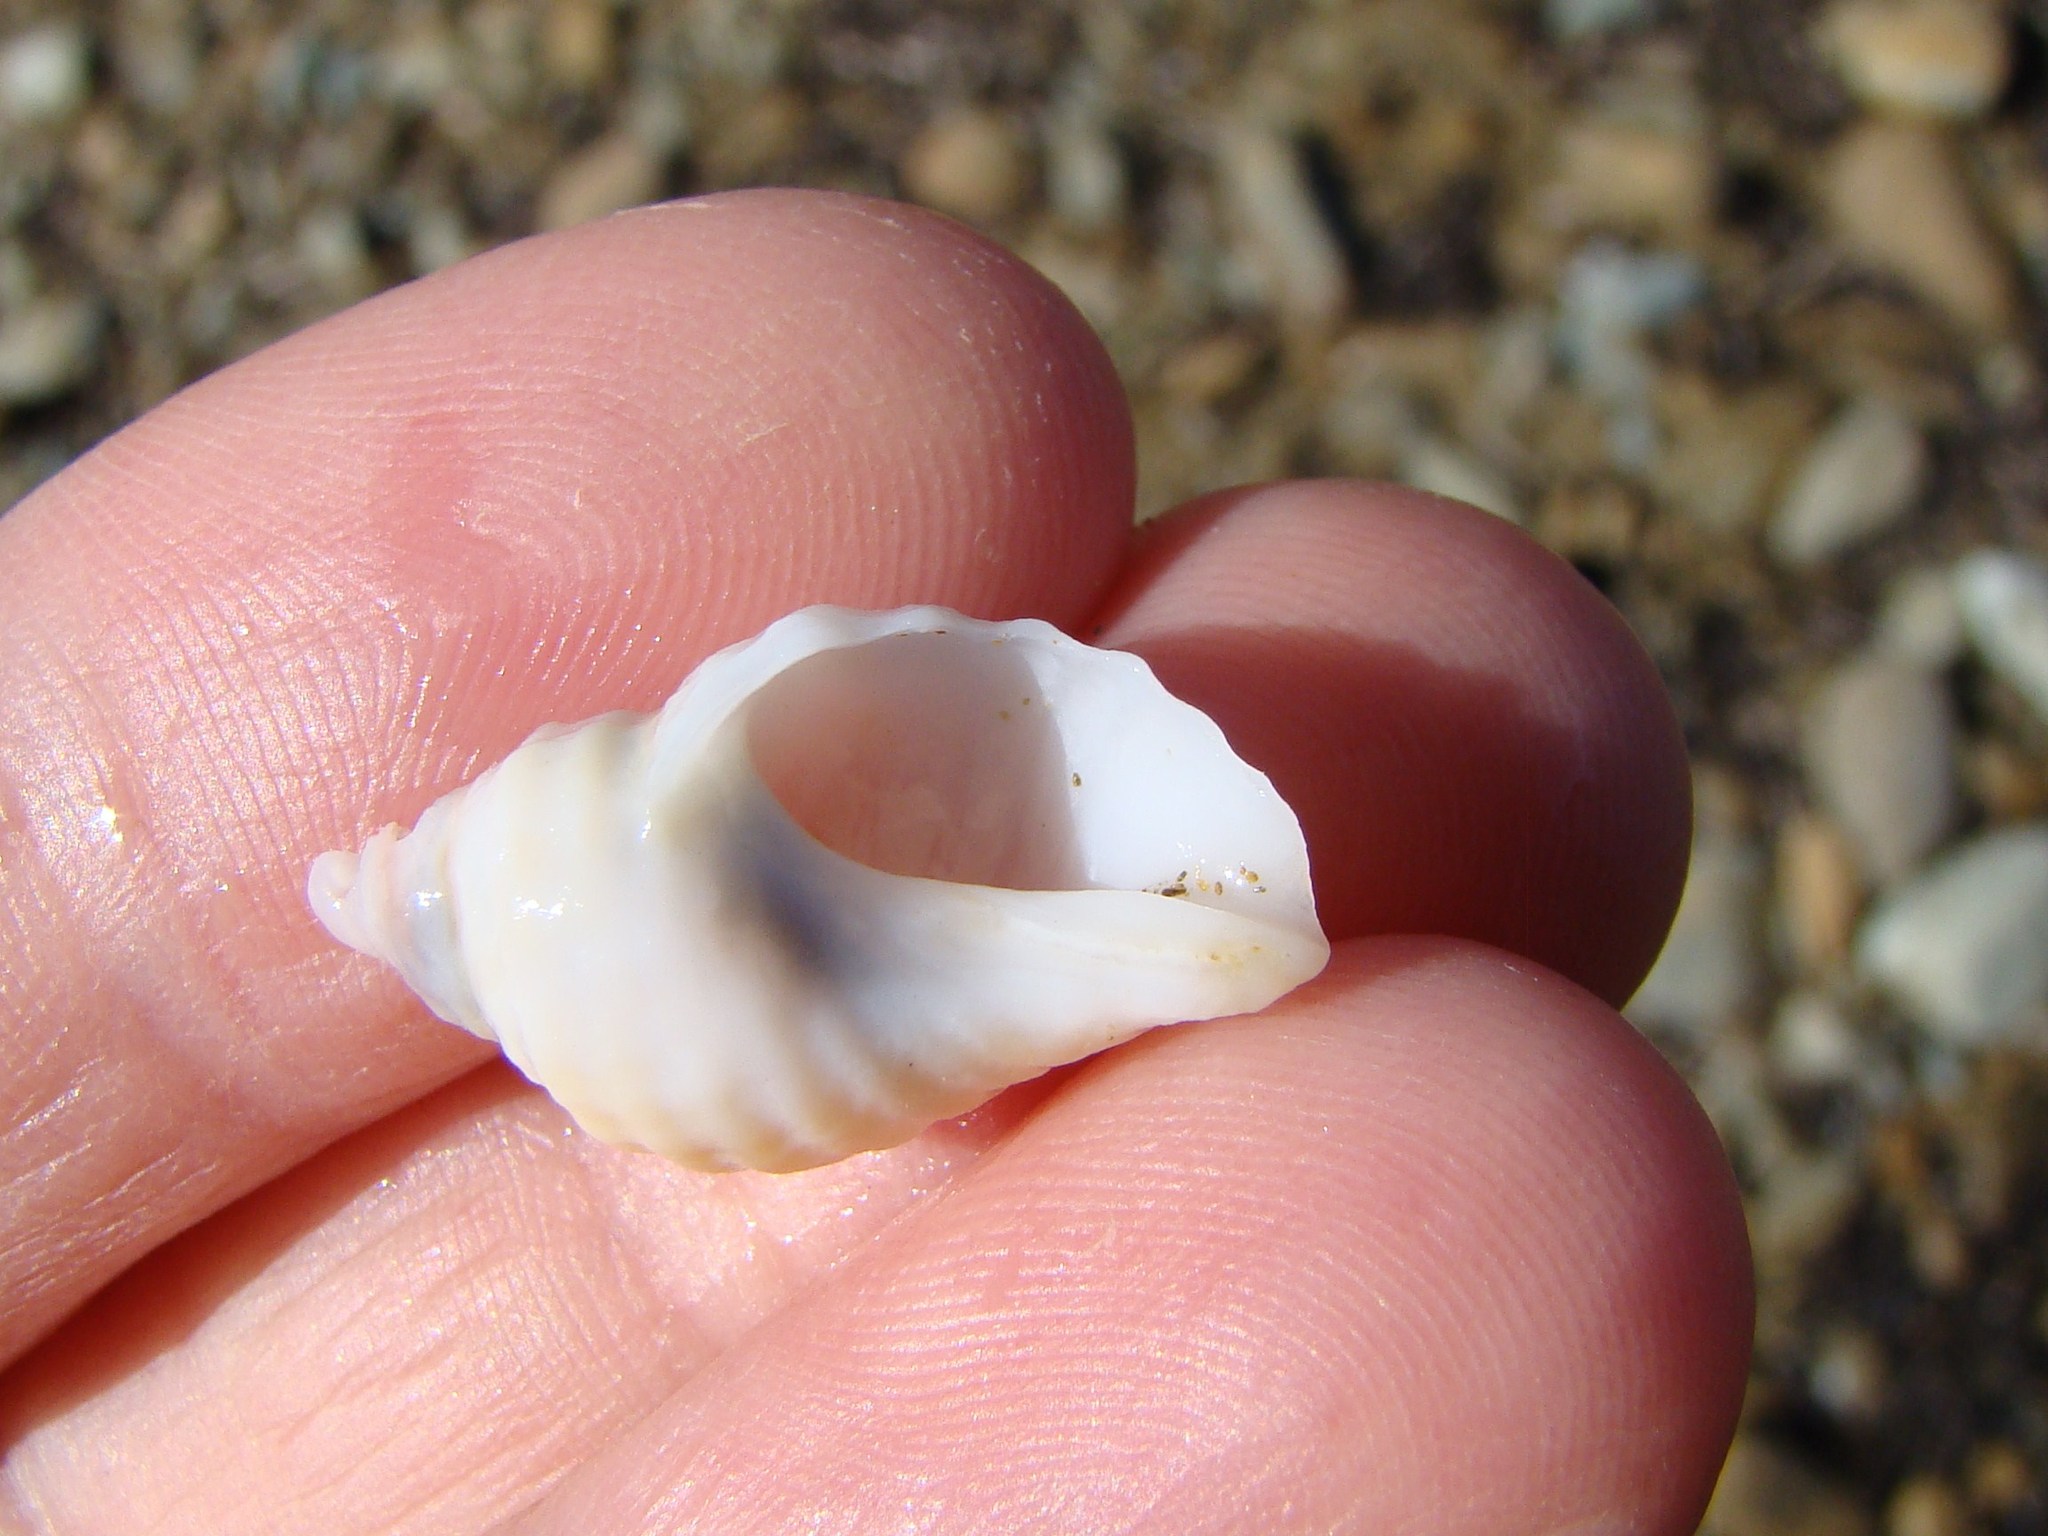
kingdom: Animalia
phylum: Mollusca
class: Gastropoda
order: Neogastropoda
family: Muricidae
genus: Haustrum
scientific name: Haustrum lacunosum
